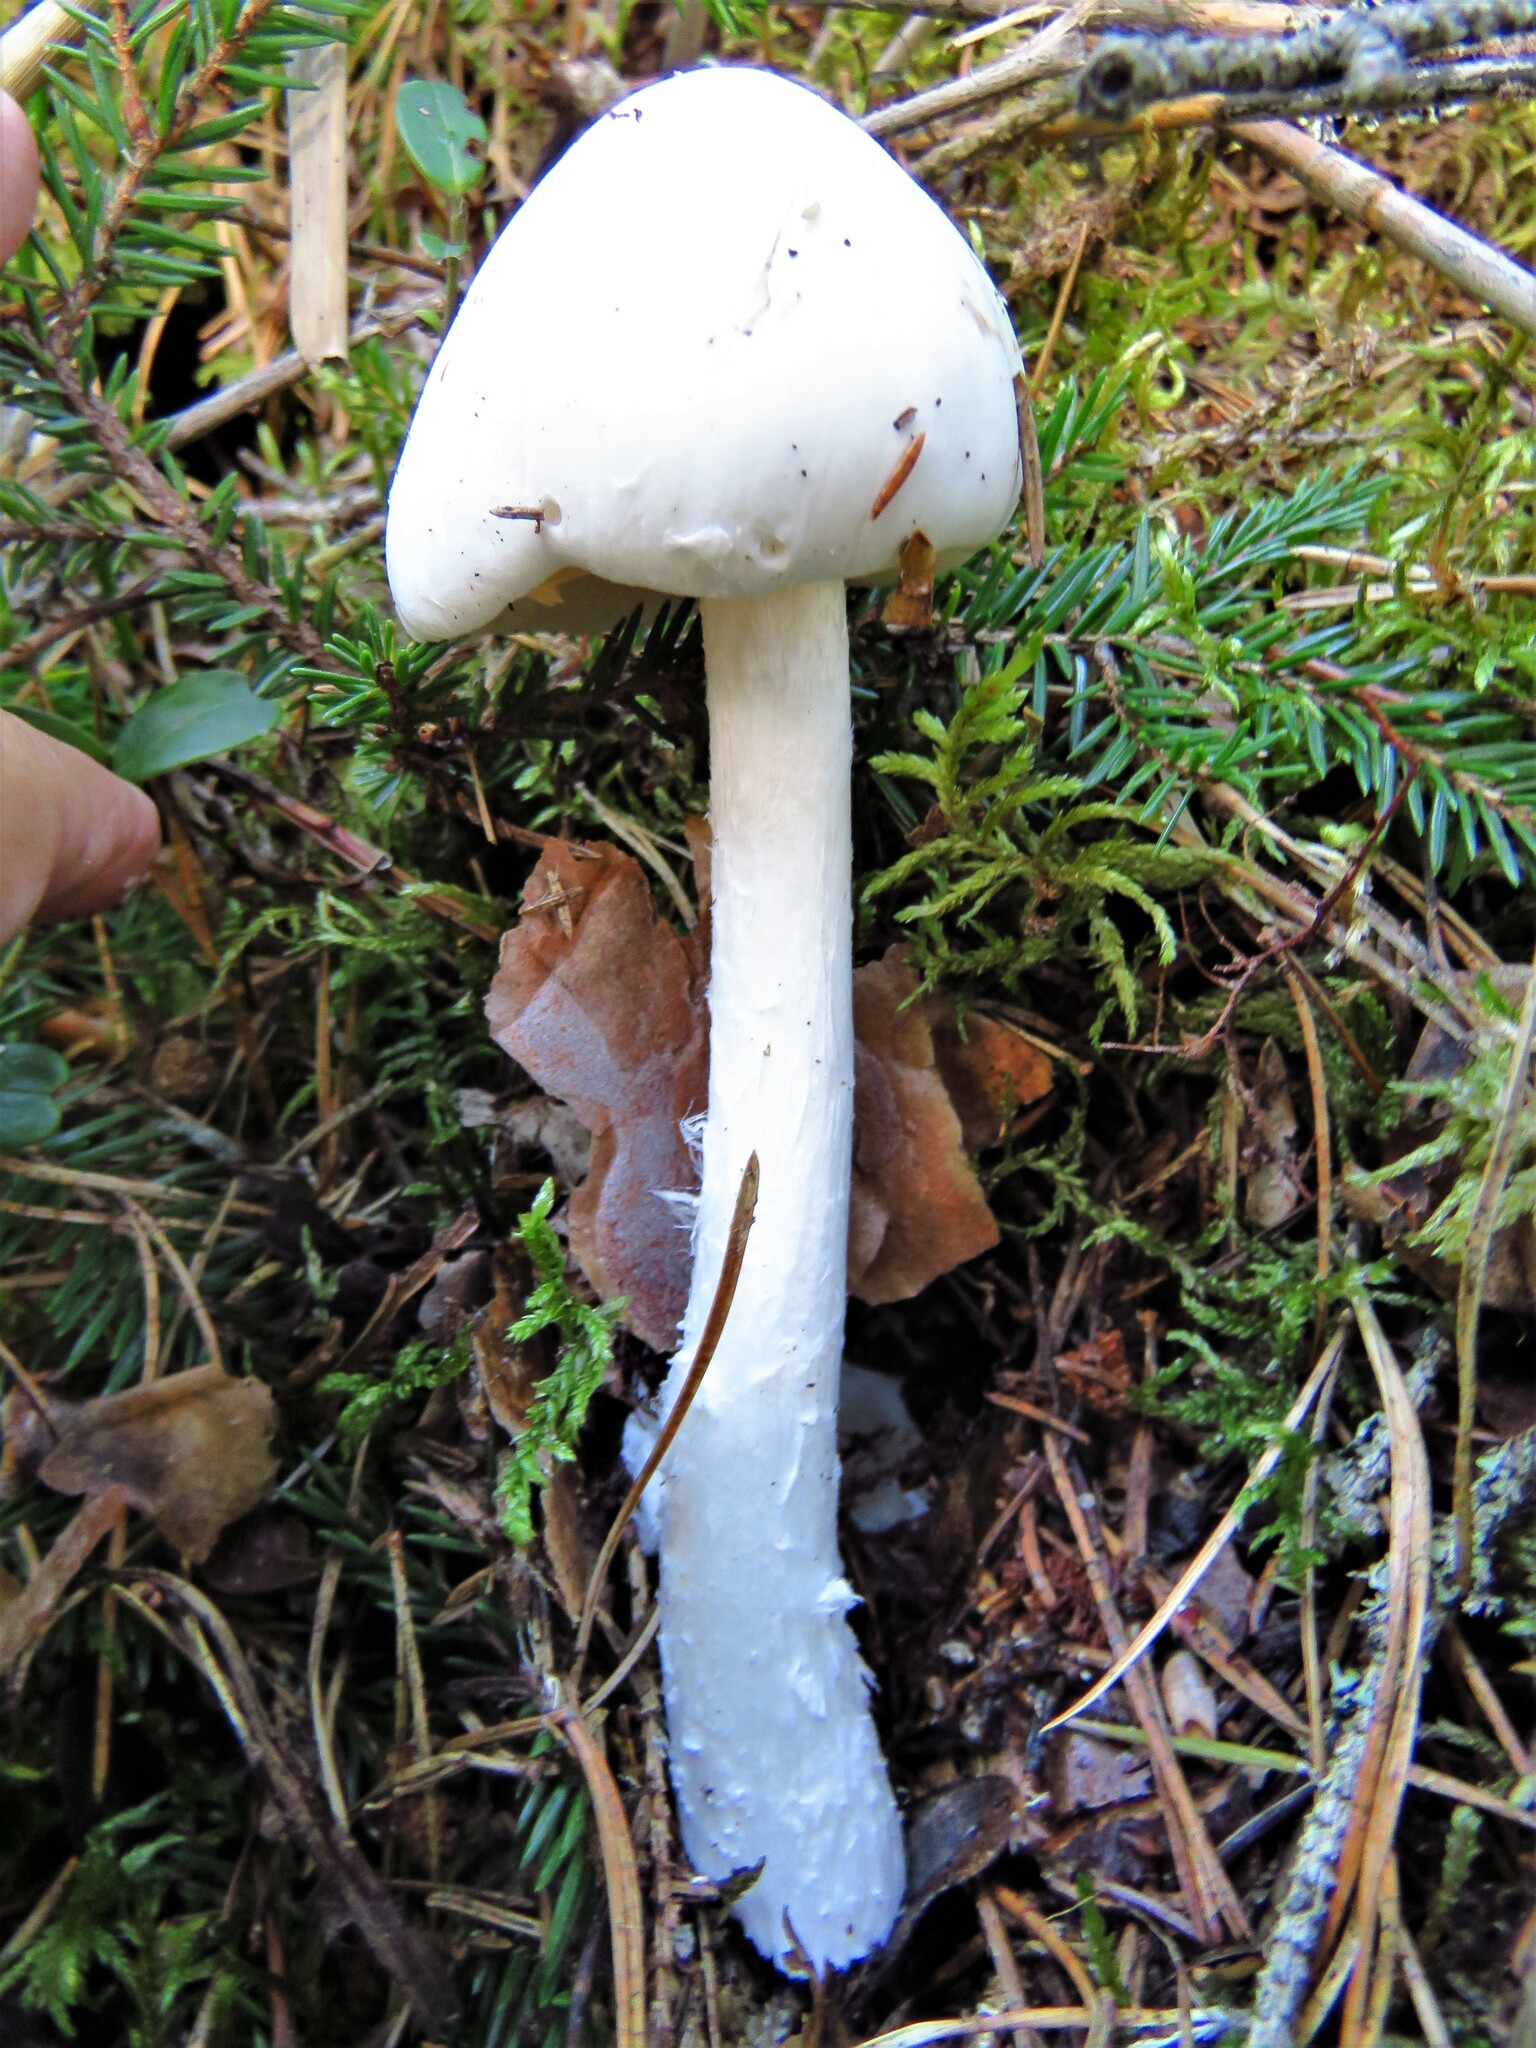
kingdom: Fungi
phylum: Basidiomycota
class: Agaricomycetes
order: Agaricales
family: Amanitaceae
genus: Amanita
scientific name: Amanita virosa
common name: Destroying angel
